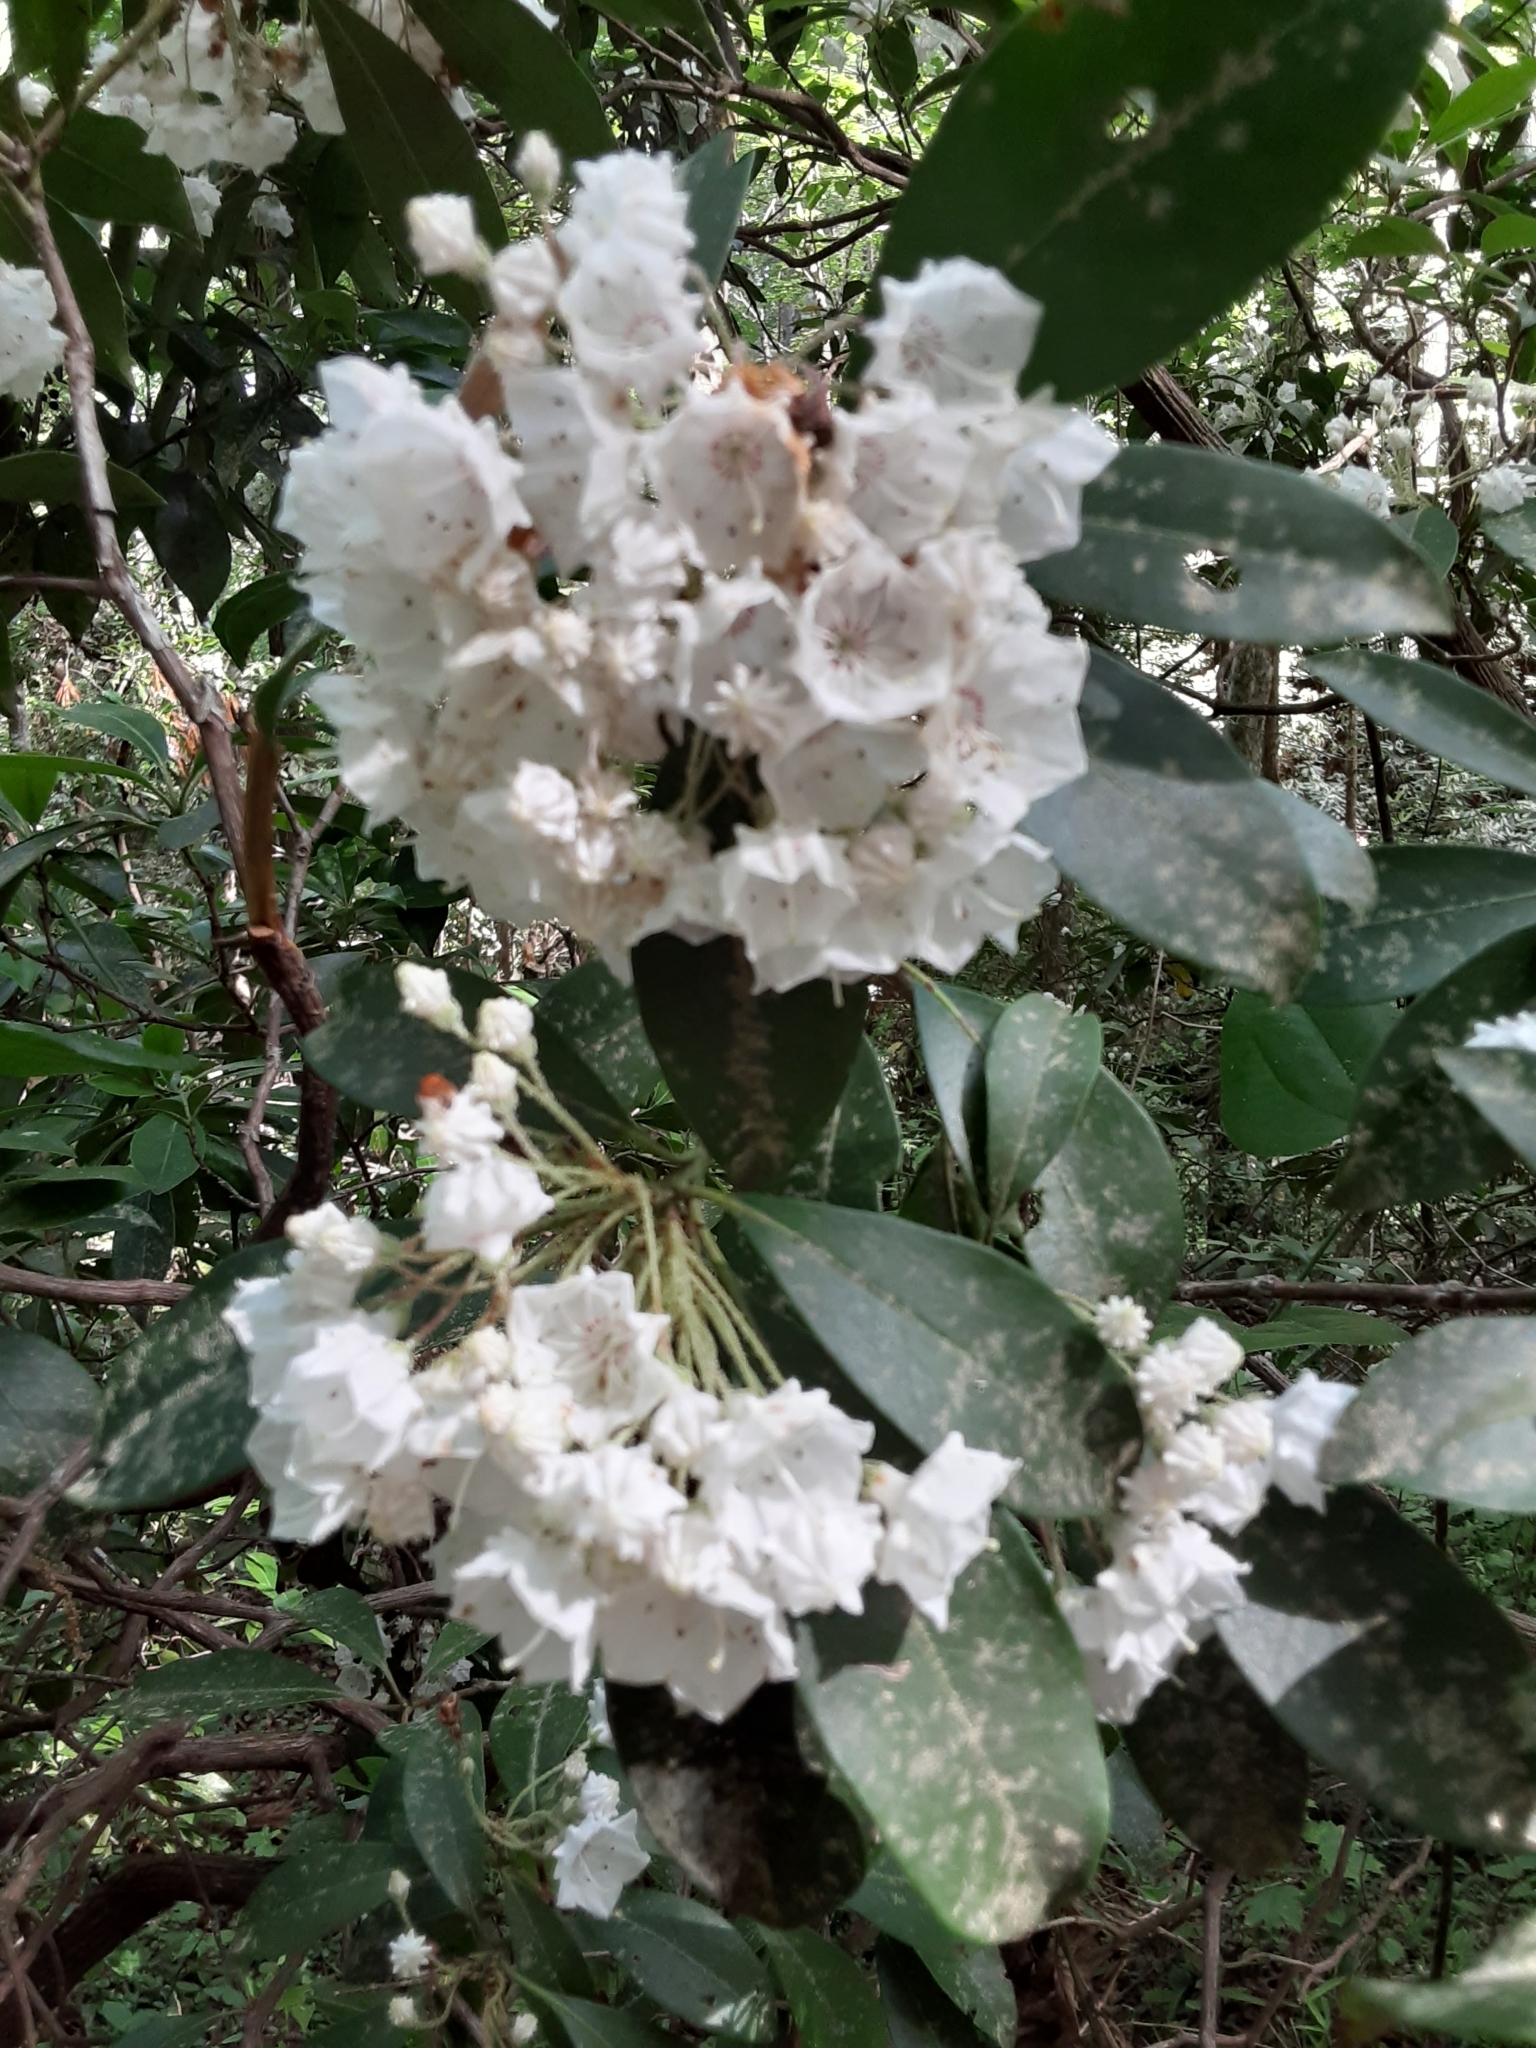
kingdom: Plantae
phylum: Tracheophyta
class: Magnoliopsida
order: Ericales
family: Ericaceae
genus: Kalmia
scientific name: Kalmia latifolia
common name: Mountain-laurel
